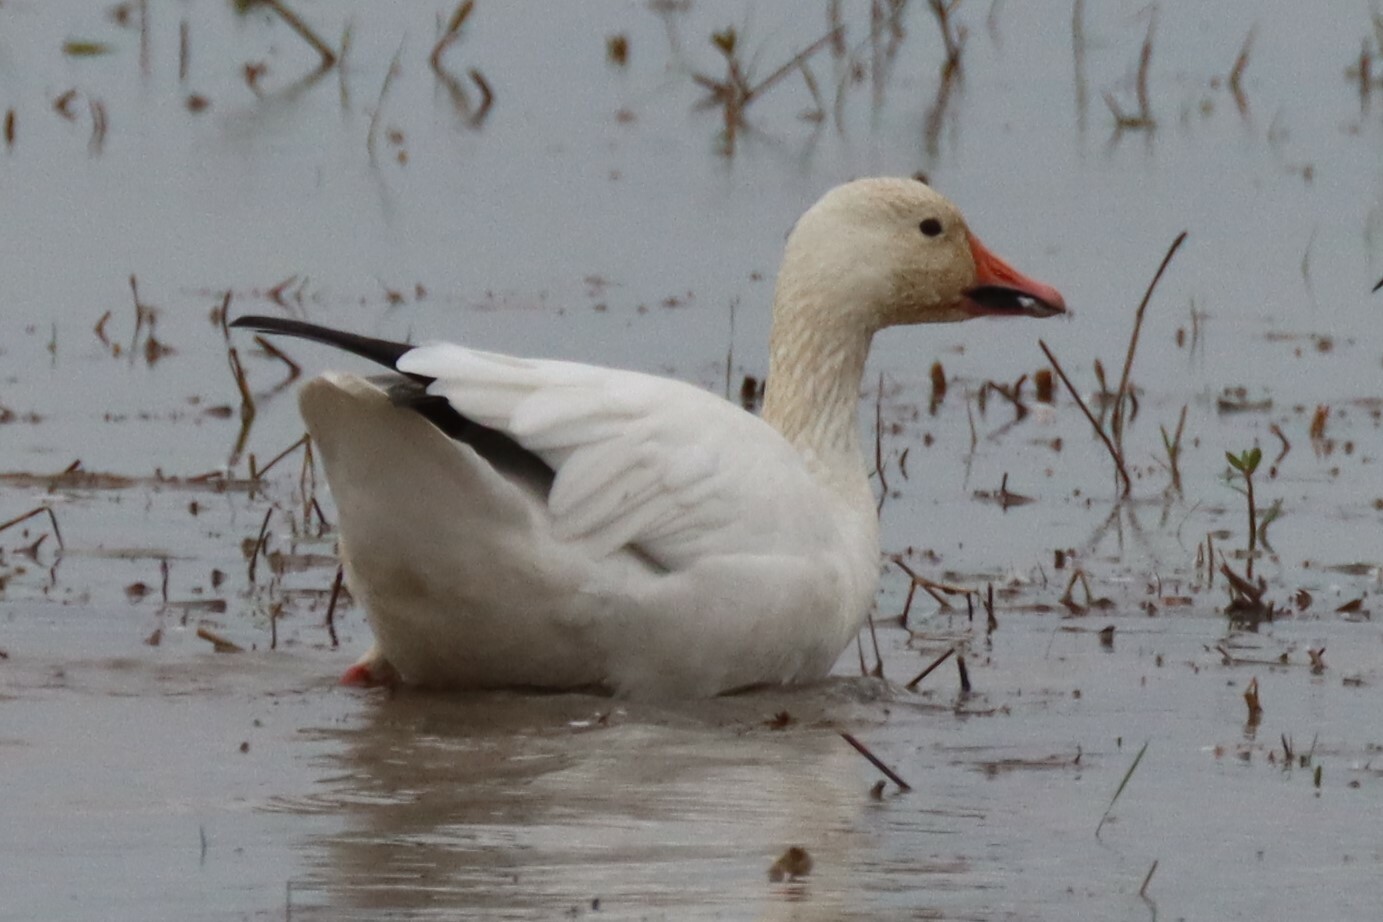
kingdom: Animalia
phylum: Chordata
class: Aves
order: Anseriformes
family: Anatidae
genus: Anser
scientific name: Anser caerulescens
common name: Snow goose
